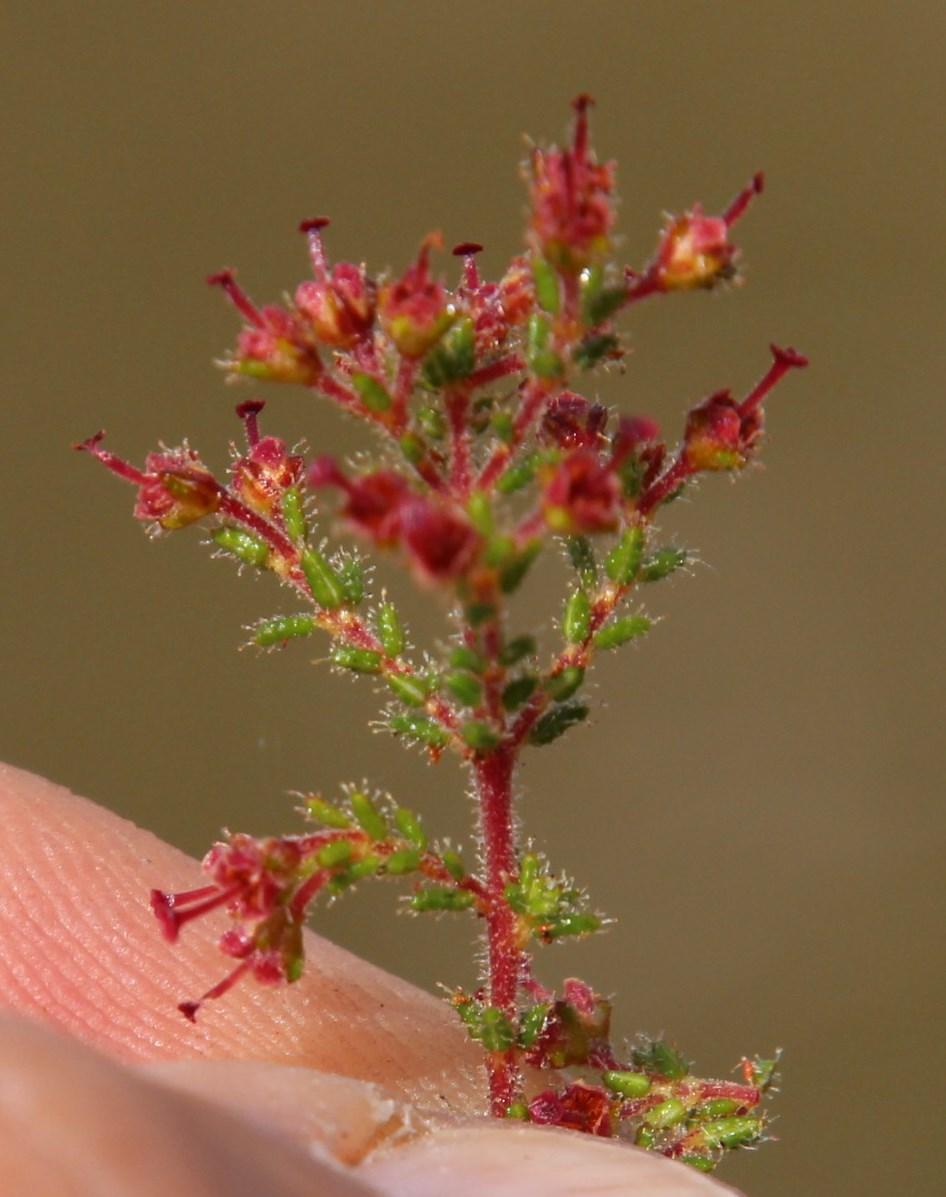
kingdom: Plantae
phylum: Tracheophyta
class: Magnoliopsida
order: Ericales
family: Ericaceae
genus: Erica
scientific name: Erica exleeana
